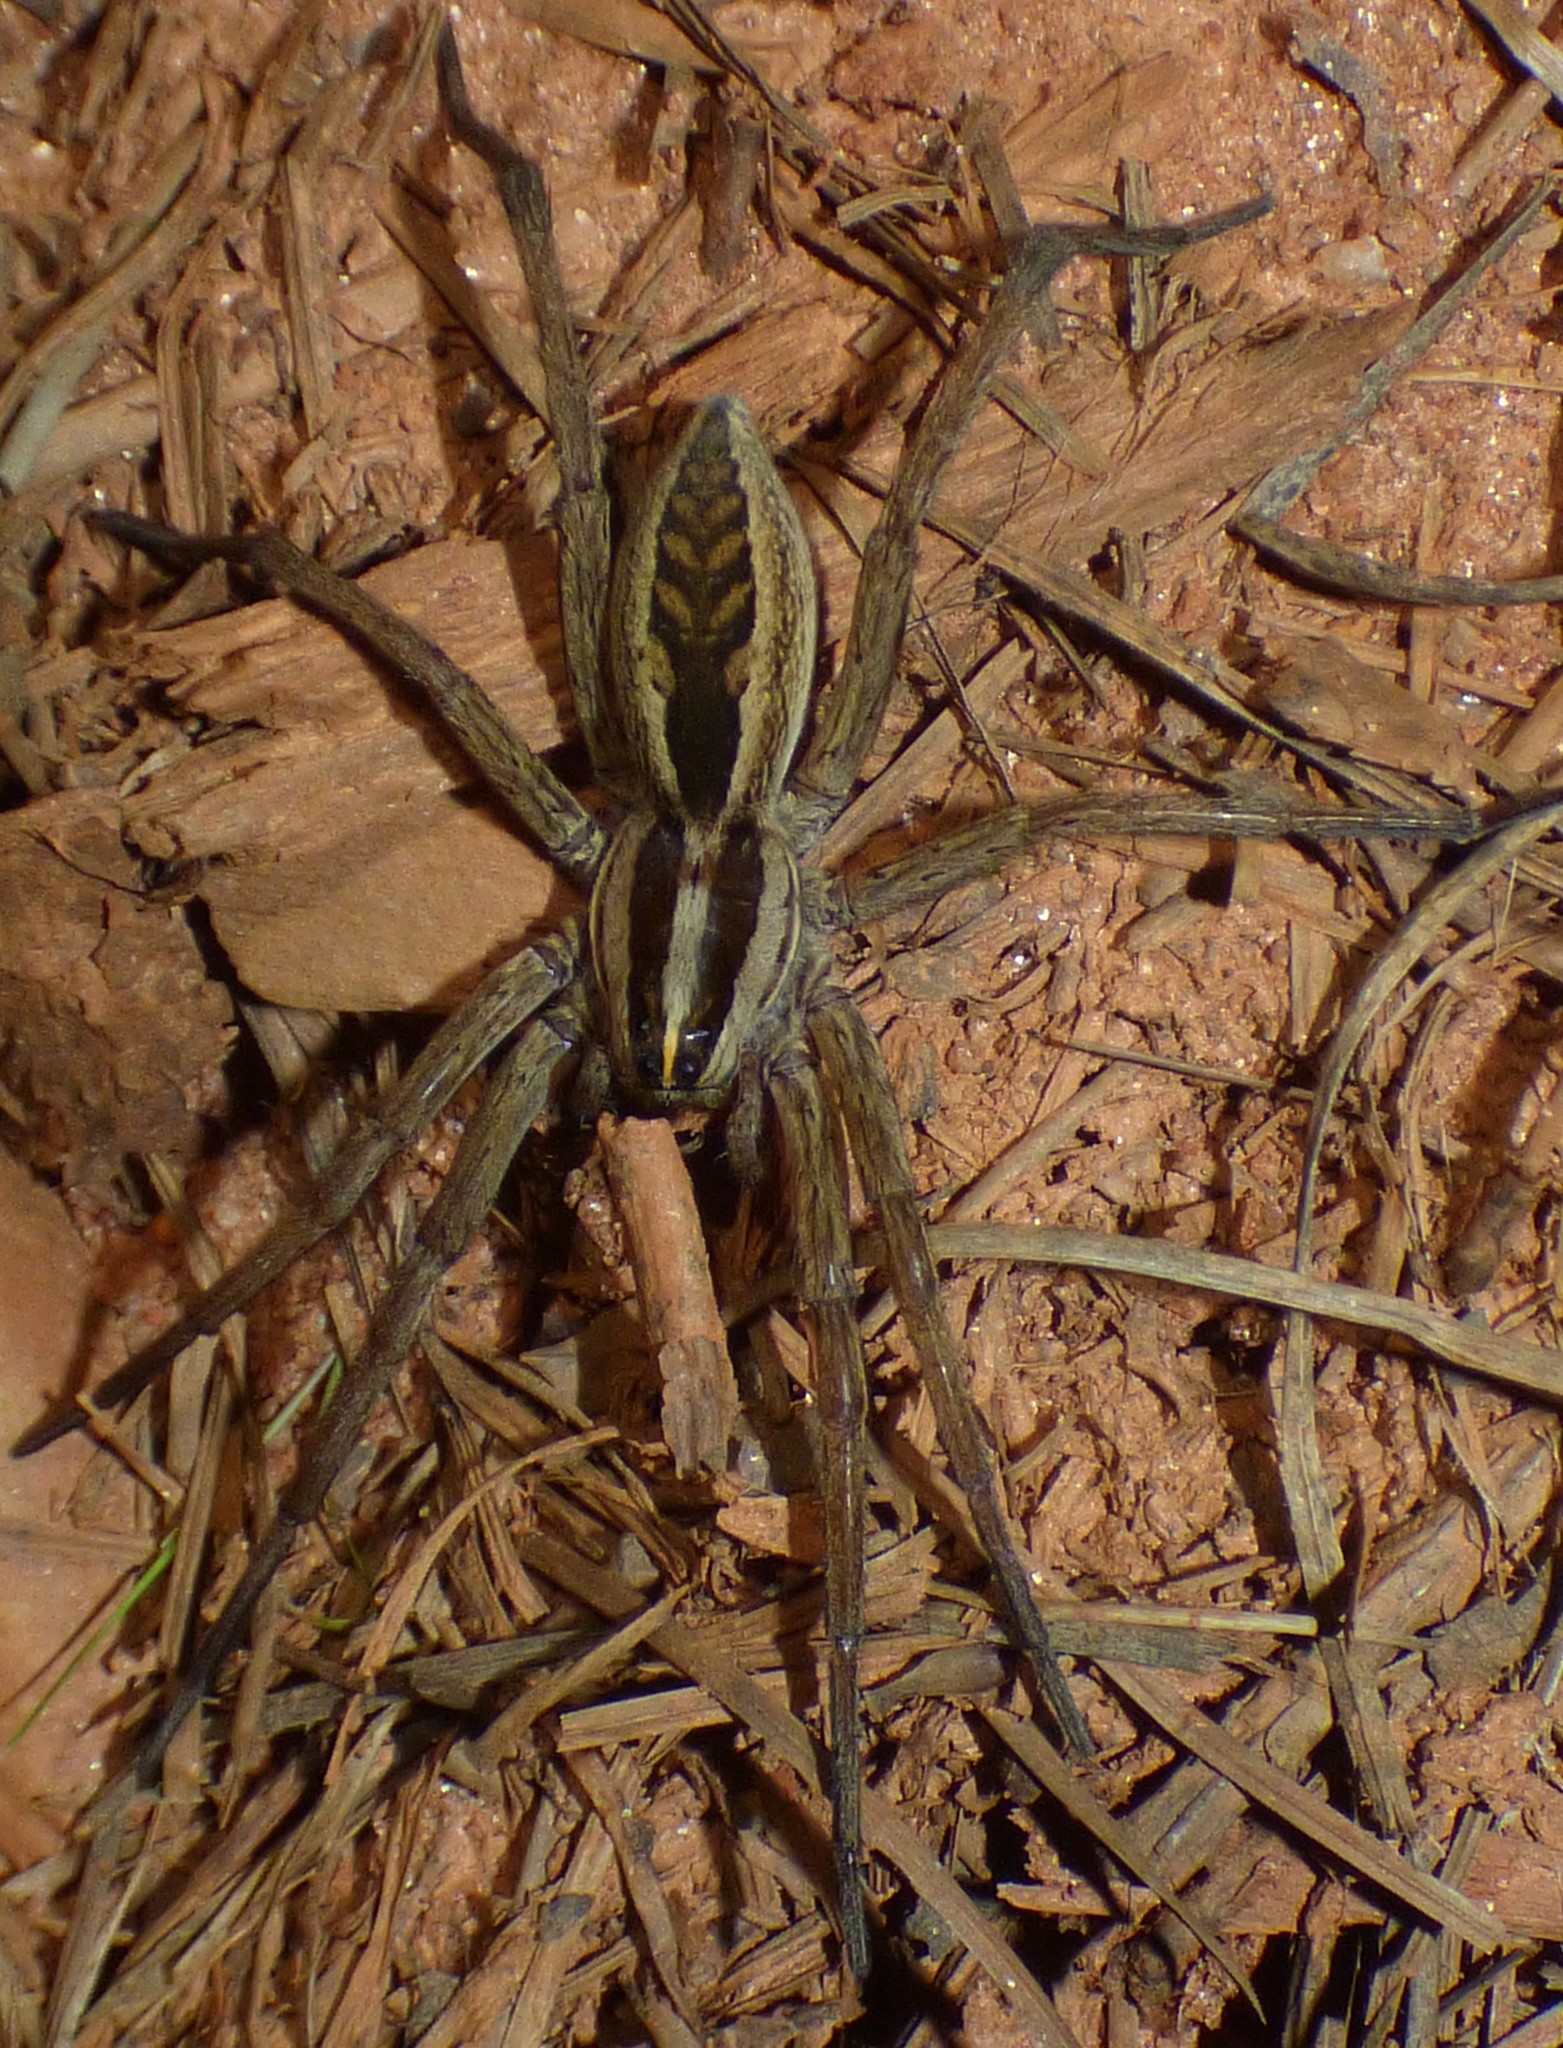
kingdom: Animalia
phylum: Arthropoda
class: Arachnida
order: Araneae
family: Lycosidae
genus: Rabidosa
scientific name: Rabidosa rabida
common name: Rabid wolf spider
